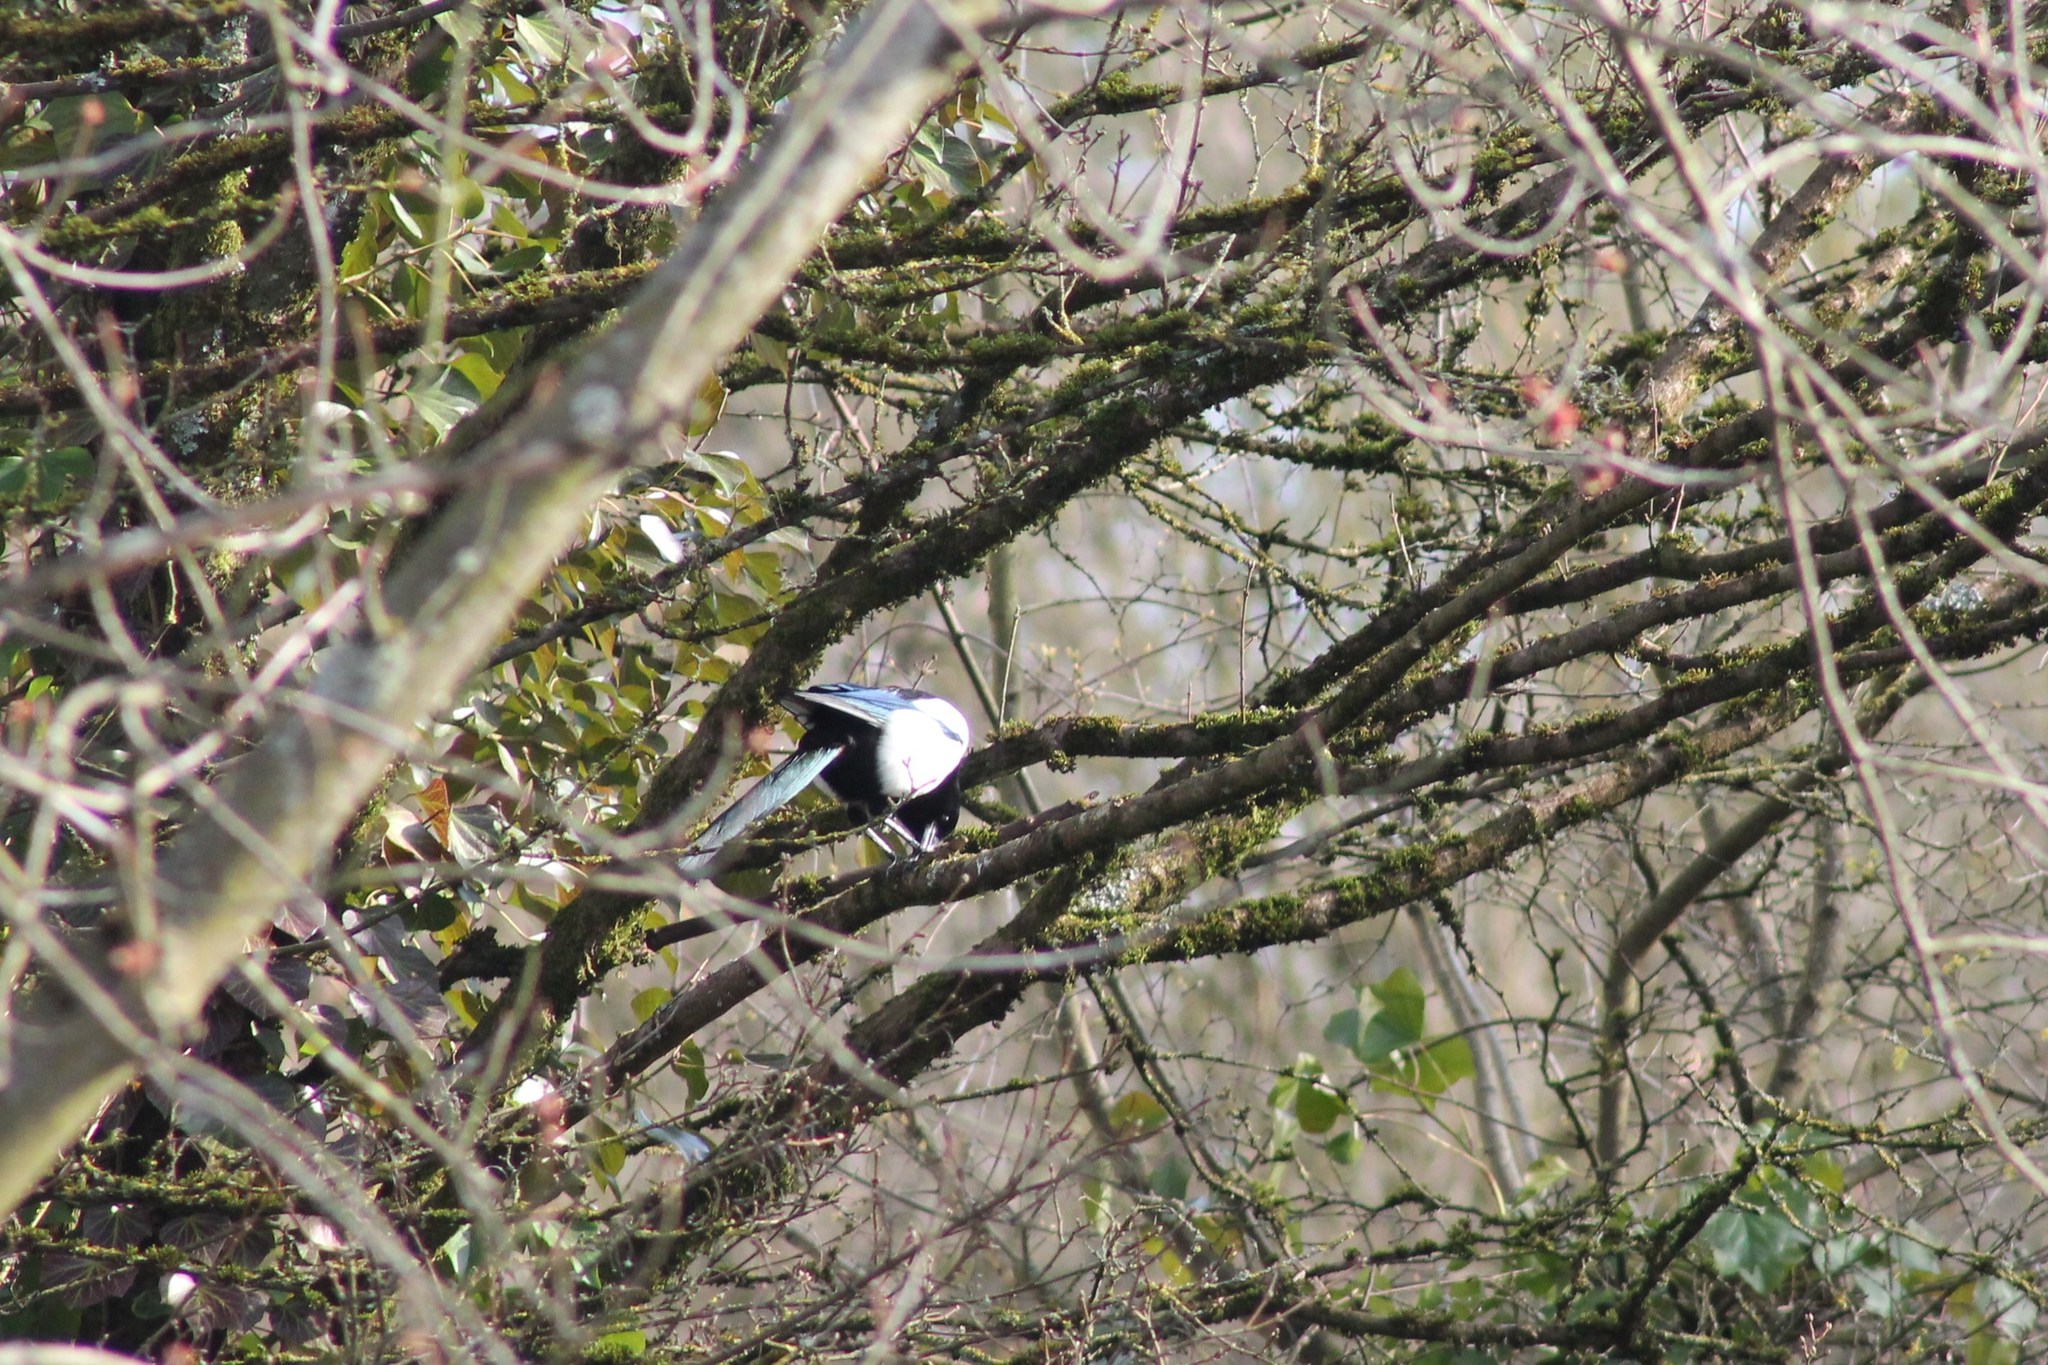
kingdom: Animalia
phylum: Chordata
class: Aves
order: Passeriformes
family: Corvidae
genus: Pica
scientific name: Pica pica
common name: Eurasian magpie
